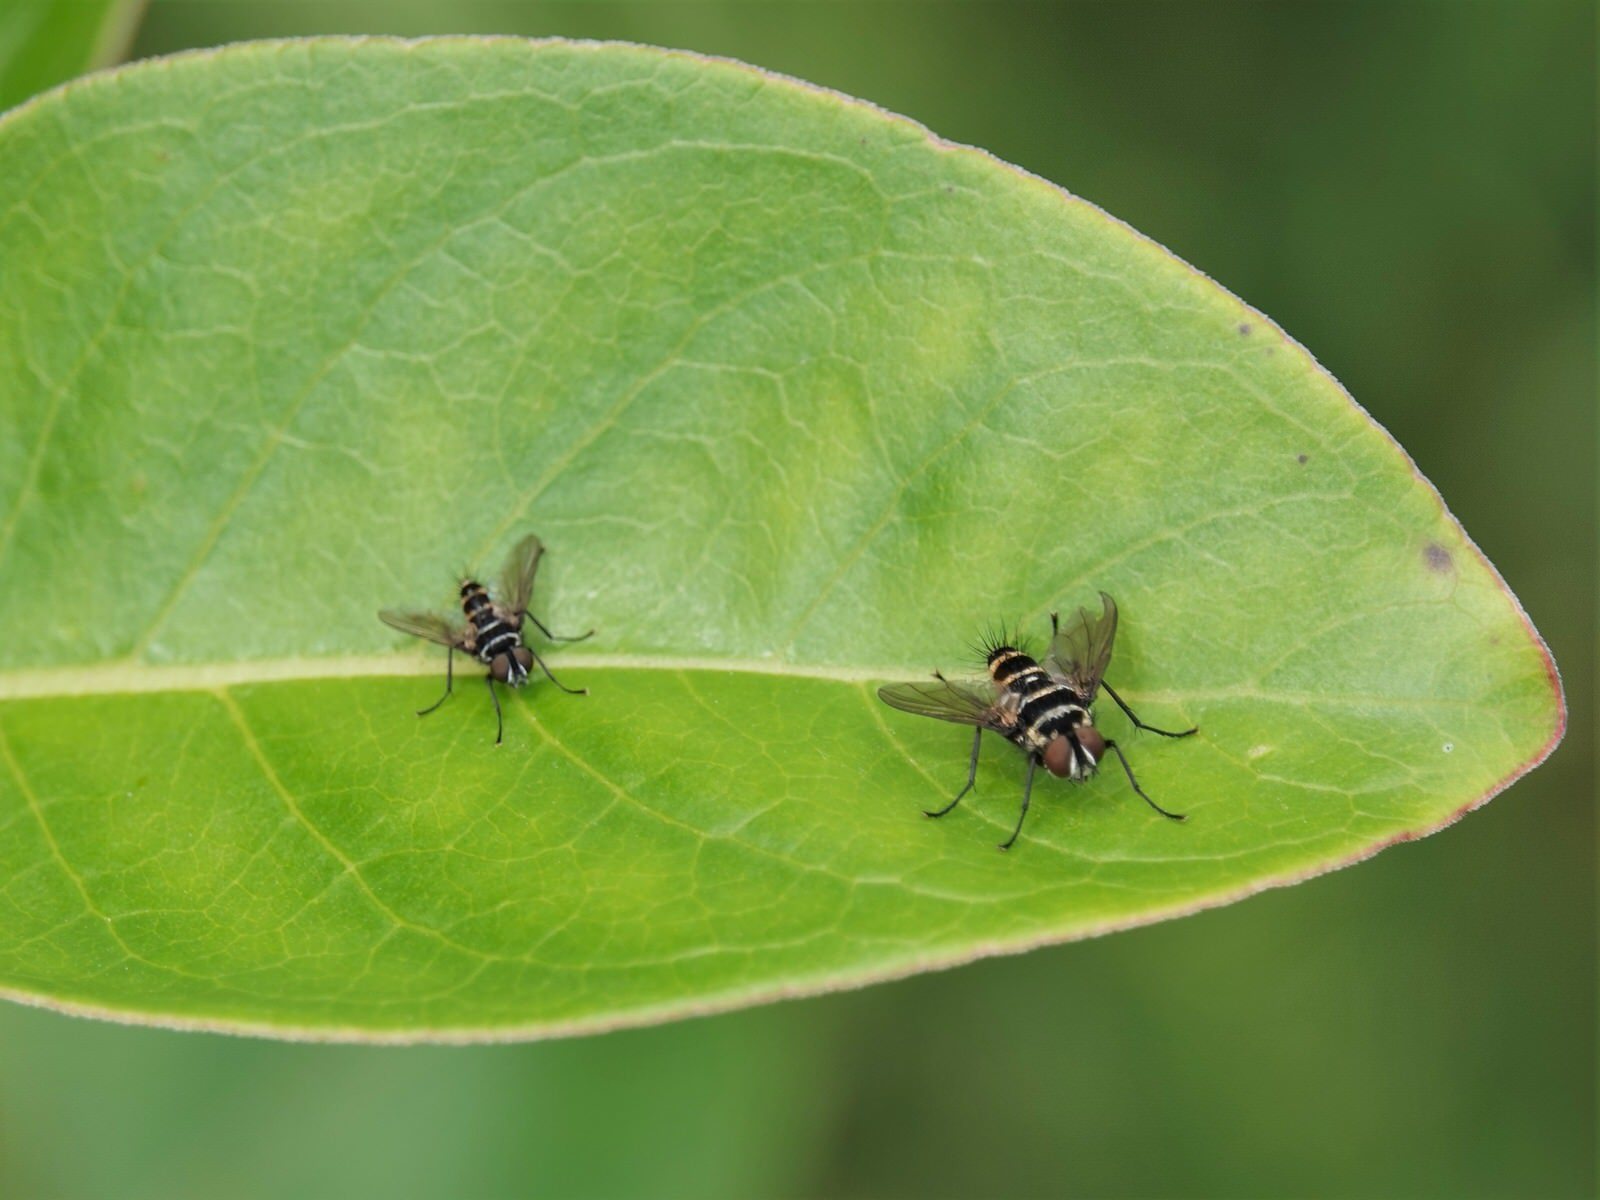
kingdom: Animalia
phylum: Arthropoda
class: Insecta
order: Diptera
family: Tachinidae
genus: Trigonospila
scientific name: Trigonospila brevifacies
